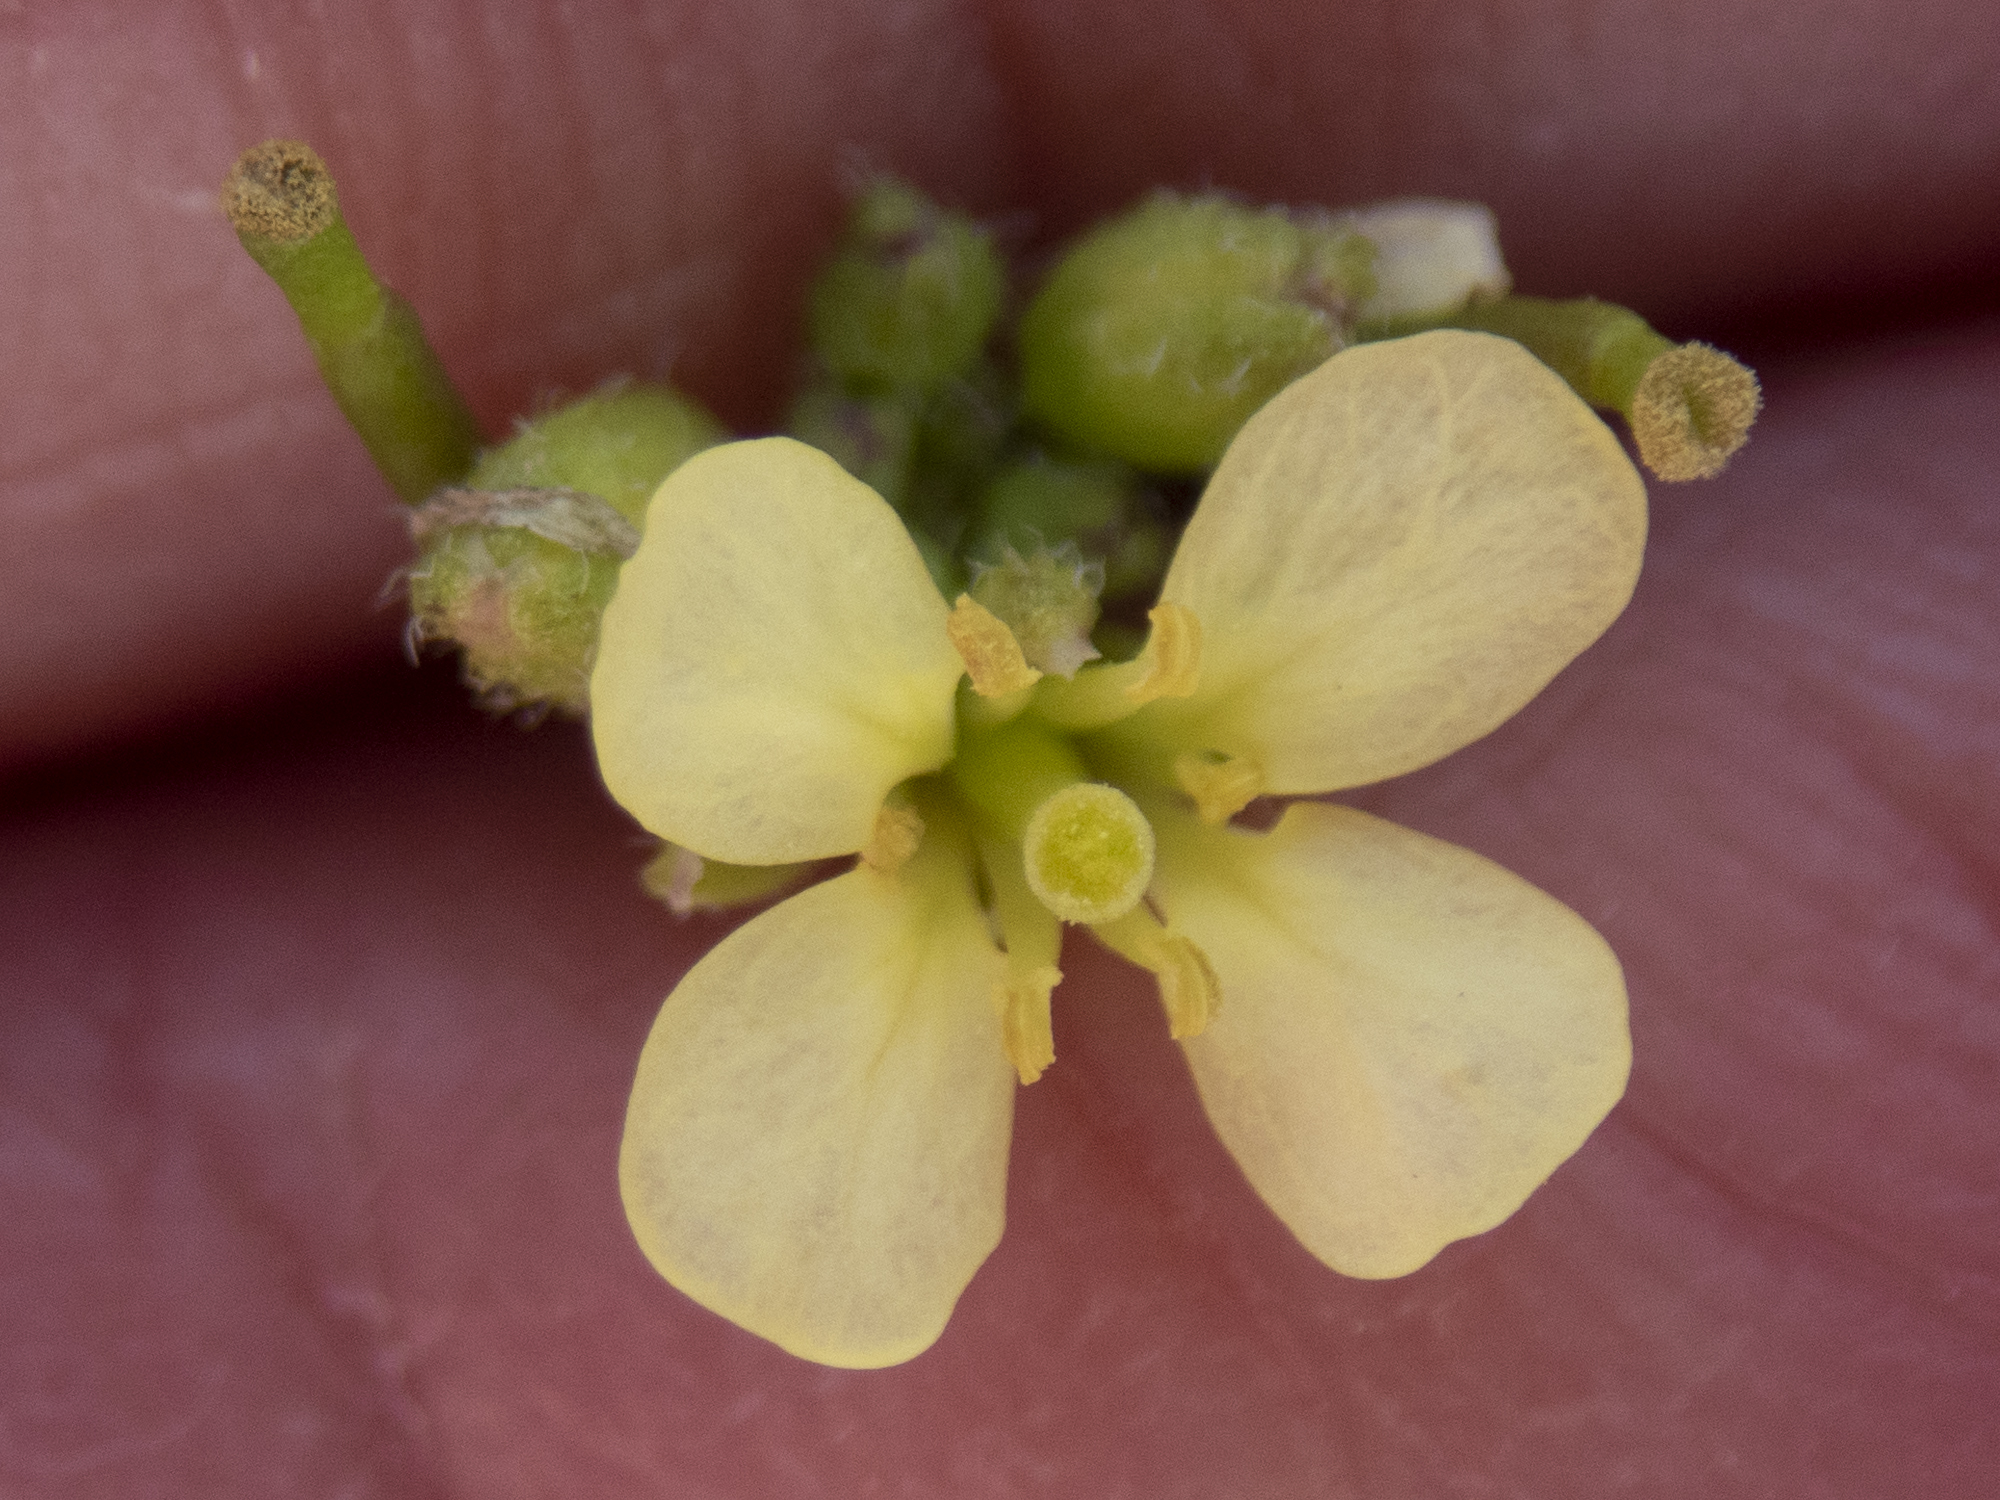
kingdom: Plantae
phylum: Tracheophyta
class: Magnoliopsida
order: Brassicales
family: Brassicaceae
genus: Erucastrum
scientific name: Erucastrum gallicum
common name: Hairy rocket
